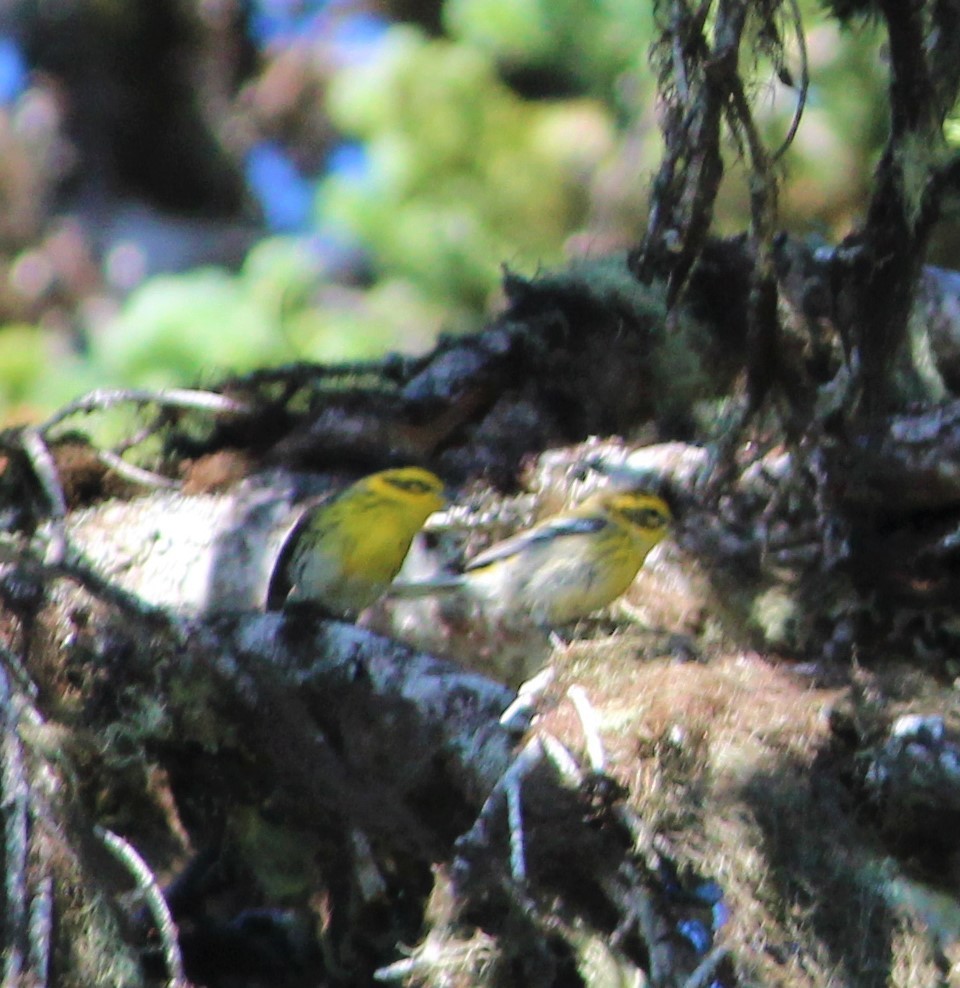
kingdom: Animalia
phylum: Chordata
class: Aves
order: Passeriformes
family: Parulidae
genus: Setophaga
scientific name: Setophaga townsendi
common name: Townsend's warbler
